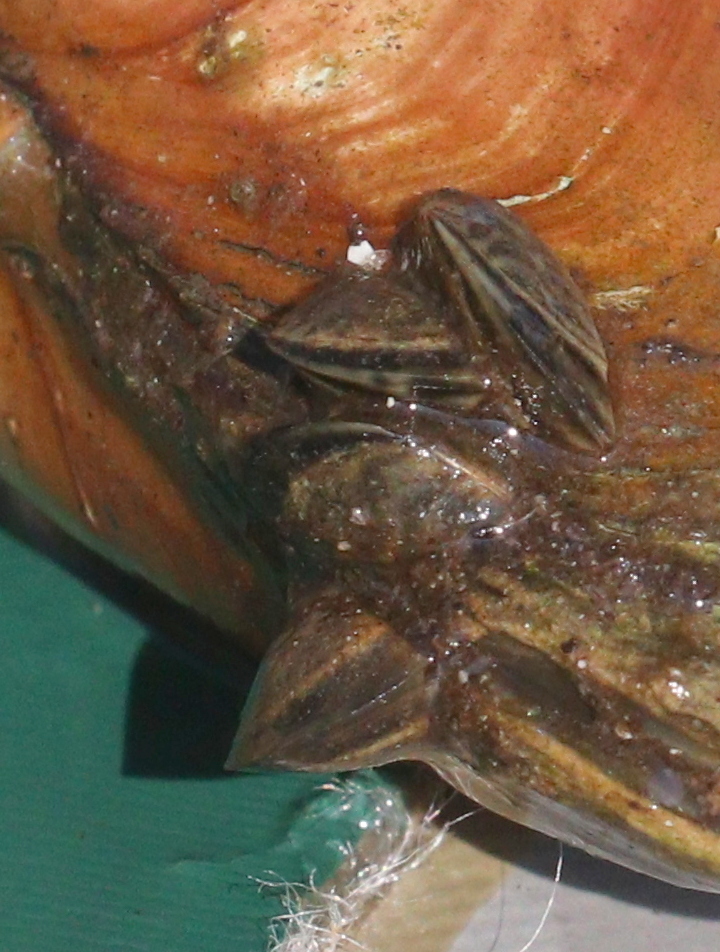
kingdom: Animalia
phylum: Mollusca
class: Bivalvia
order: Myida
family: Dreissenidae
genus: Dreissena
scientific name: Dreissena polymorpha
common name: Zebra mussel
